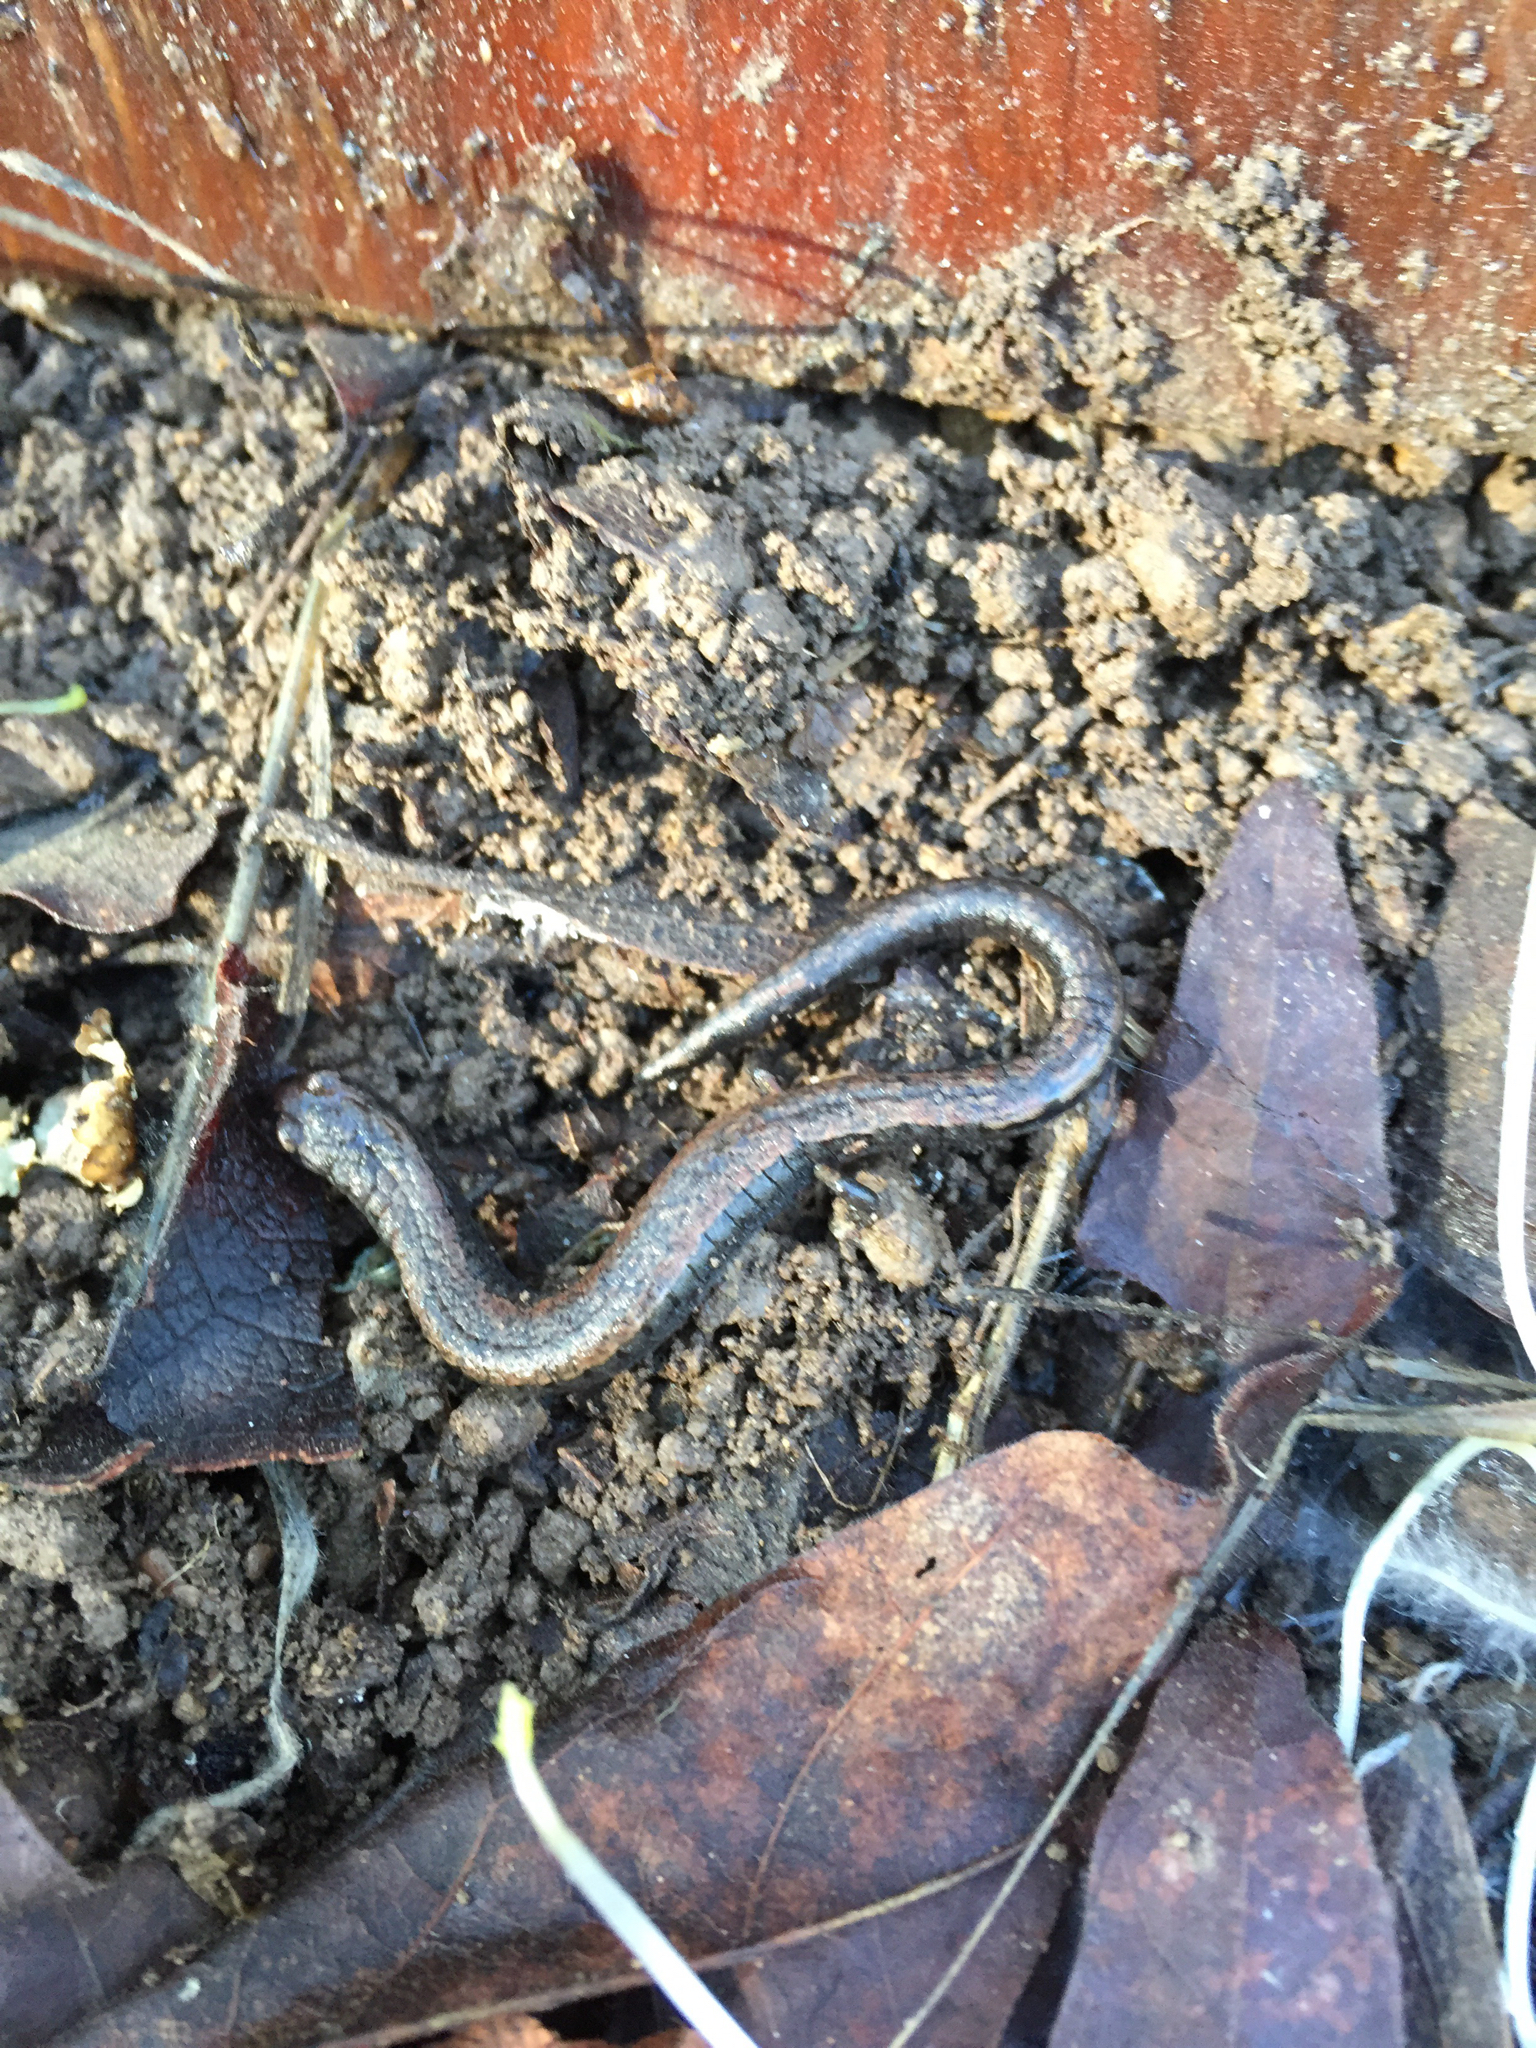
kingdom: Animalia
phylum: Chordata
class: Amphibia
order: Caudata
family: Plethodontidae
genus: Batrachoseps
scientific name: Batrachoseps attenuatus
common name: California slender salamander
